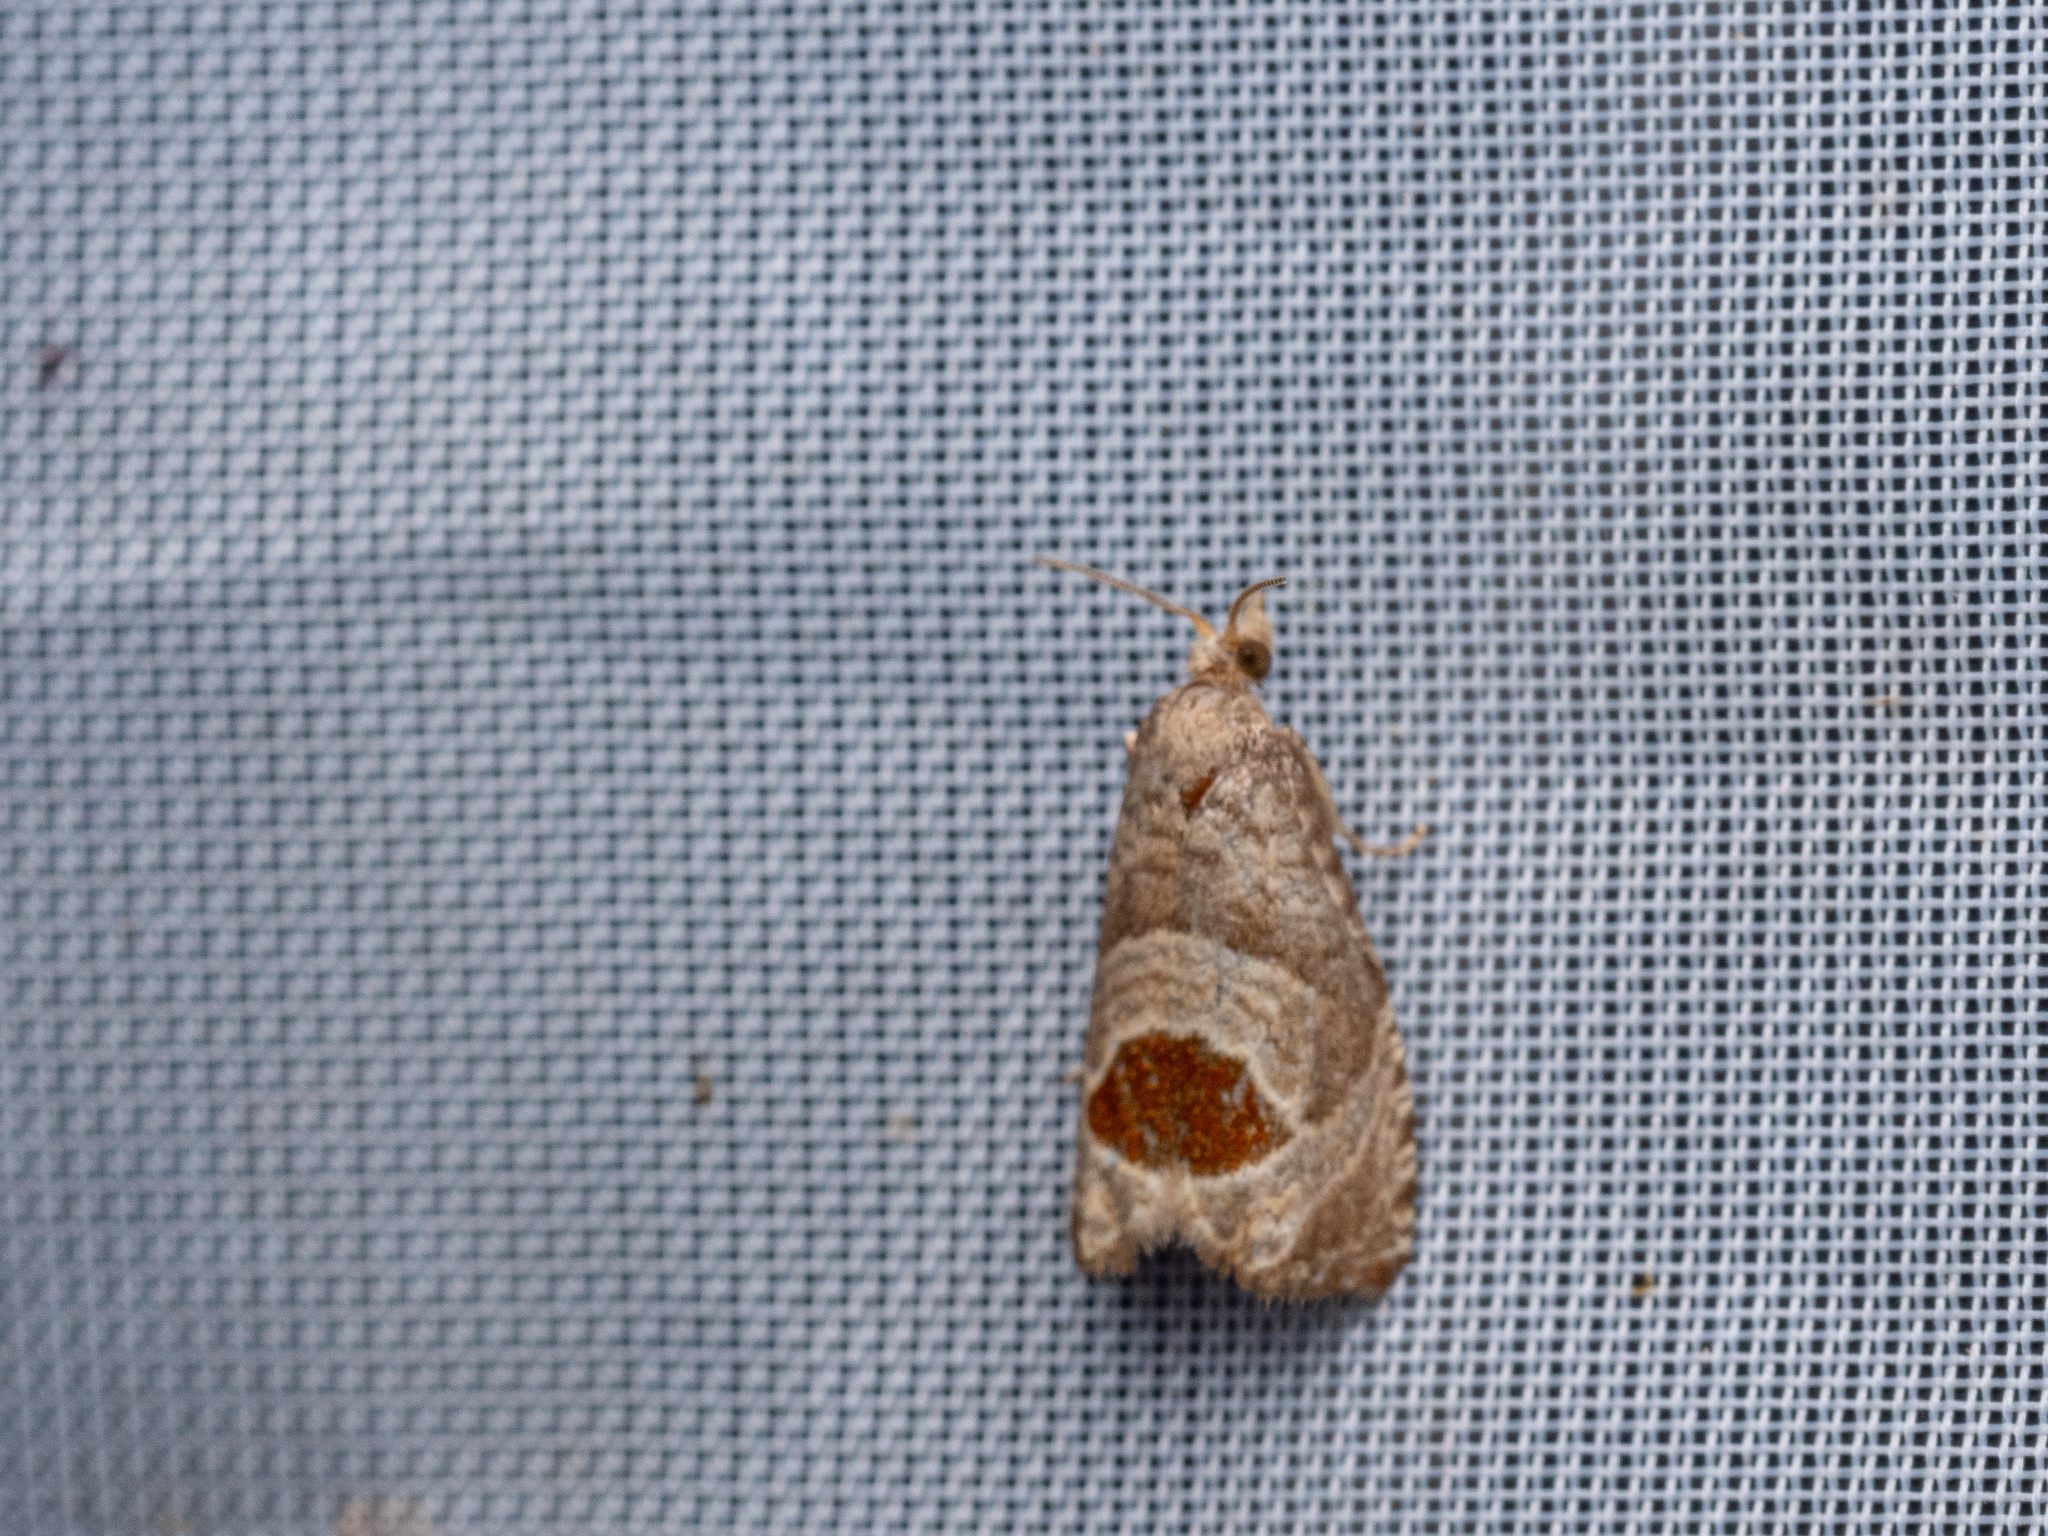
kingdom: Animalia
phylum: Arthropoda
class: Insecta
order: Lepidoptera
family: Tortricidae
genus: Notocelia
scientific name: Notocelia uddmanniana
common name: Bramble shoot moth
